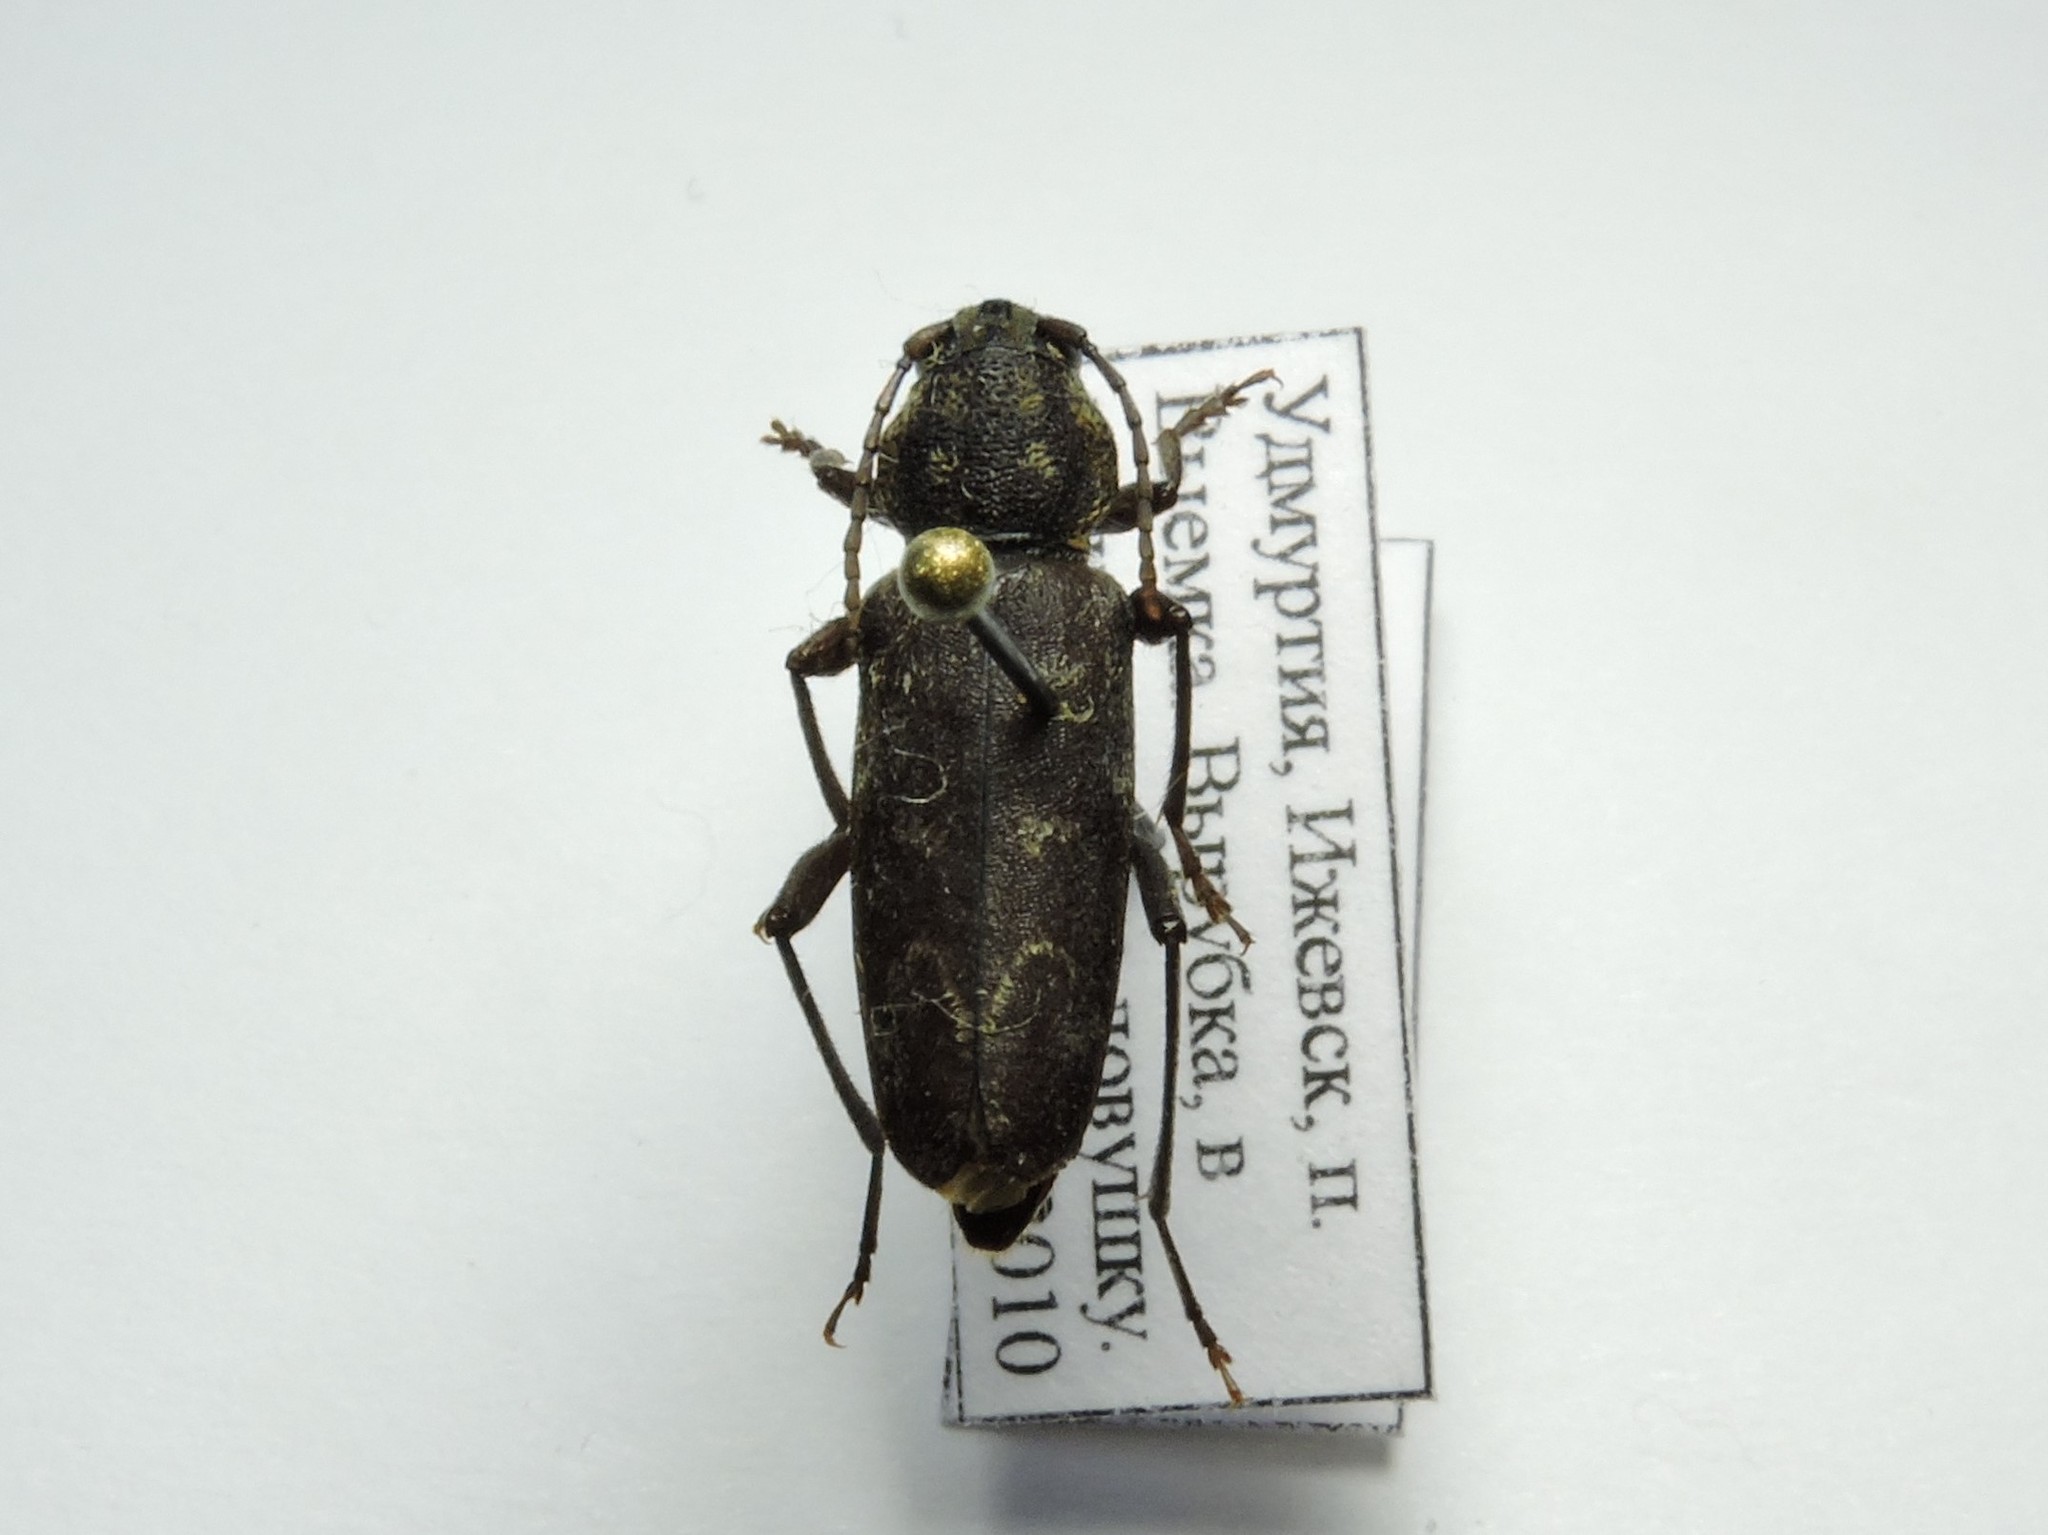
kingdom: Animalia
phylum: Arthropoda
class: Insecta
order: Coleoptera
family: Cerambycidae
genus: Xylotrechus
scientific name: Xylotrechus rusticus
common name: Grey tiger long-horned beetle
